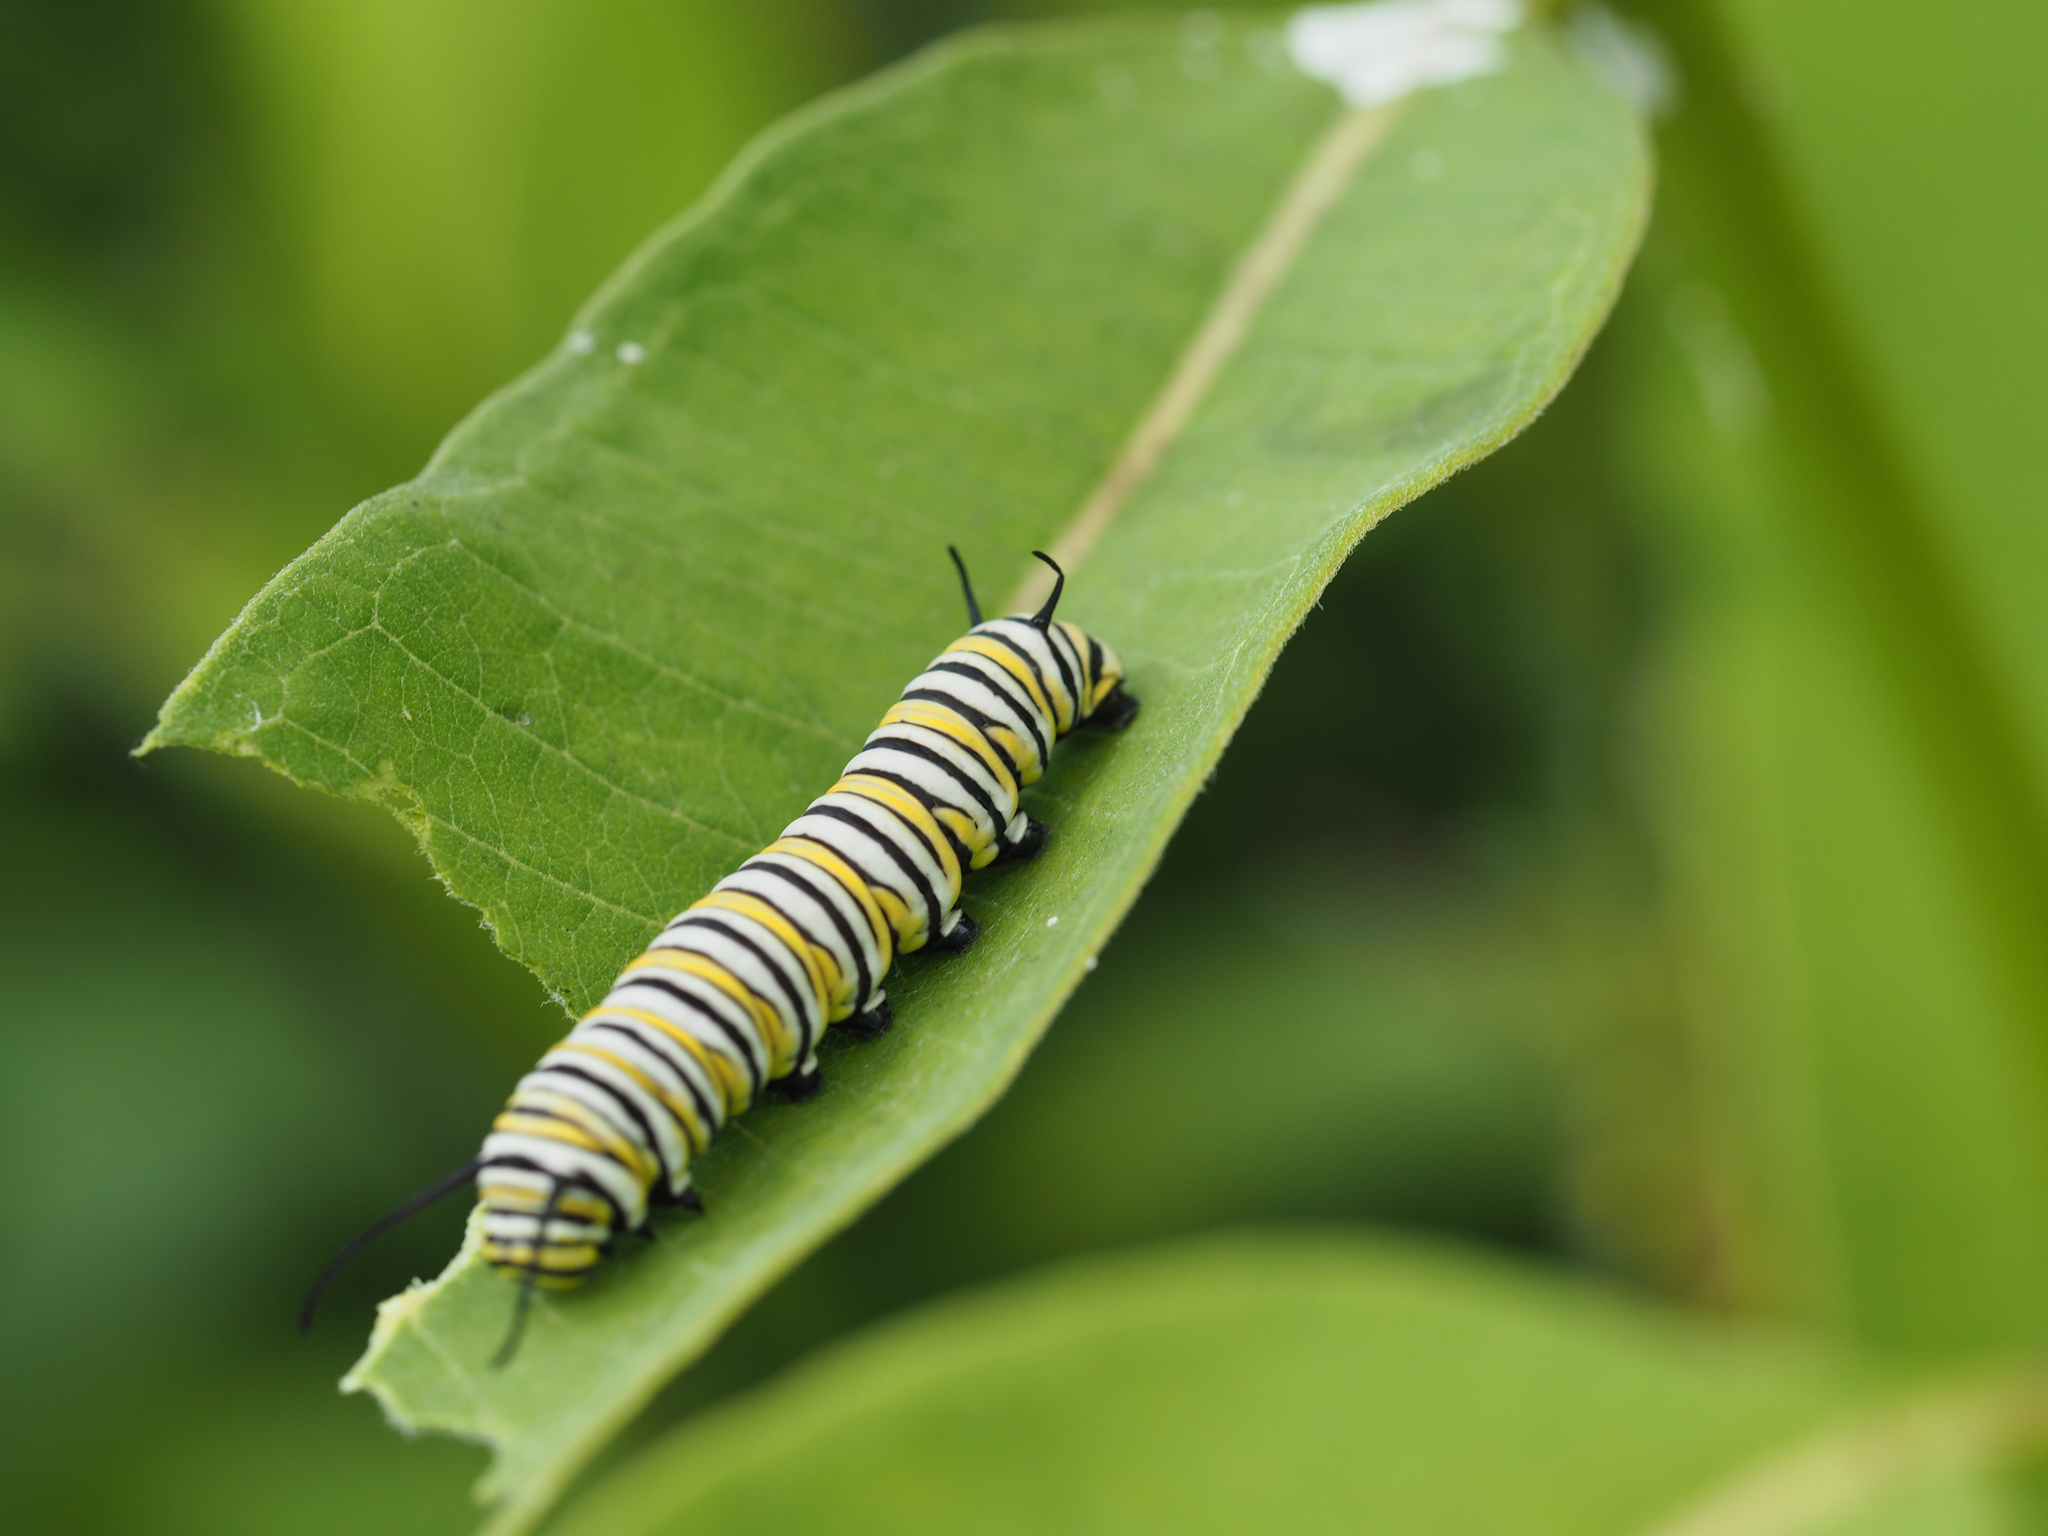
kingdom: Animalia
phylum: Arthropoda
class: Insecta
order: Lepidoptera
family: Nymphalidae
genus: Danaus
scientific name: Danaus plexippus
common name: Monarch
